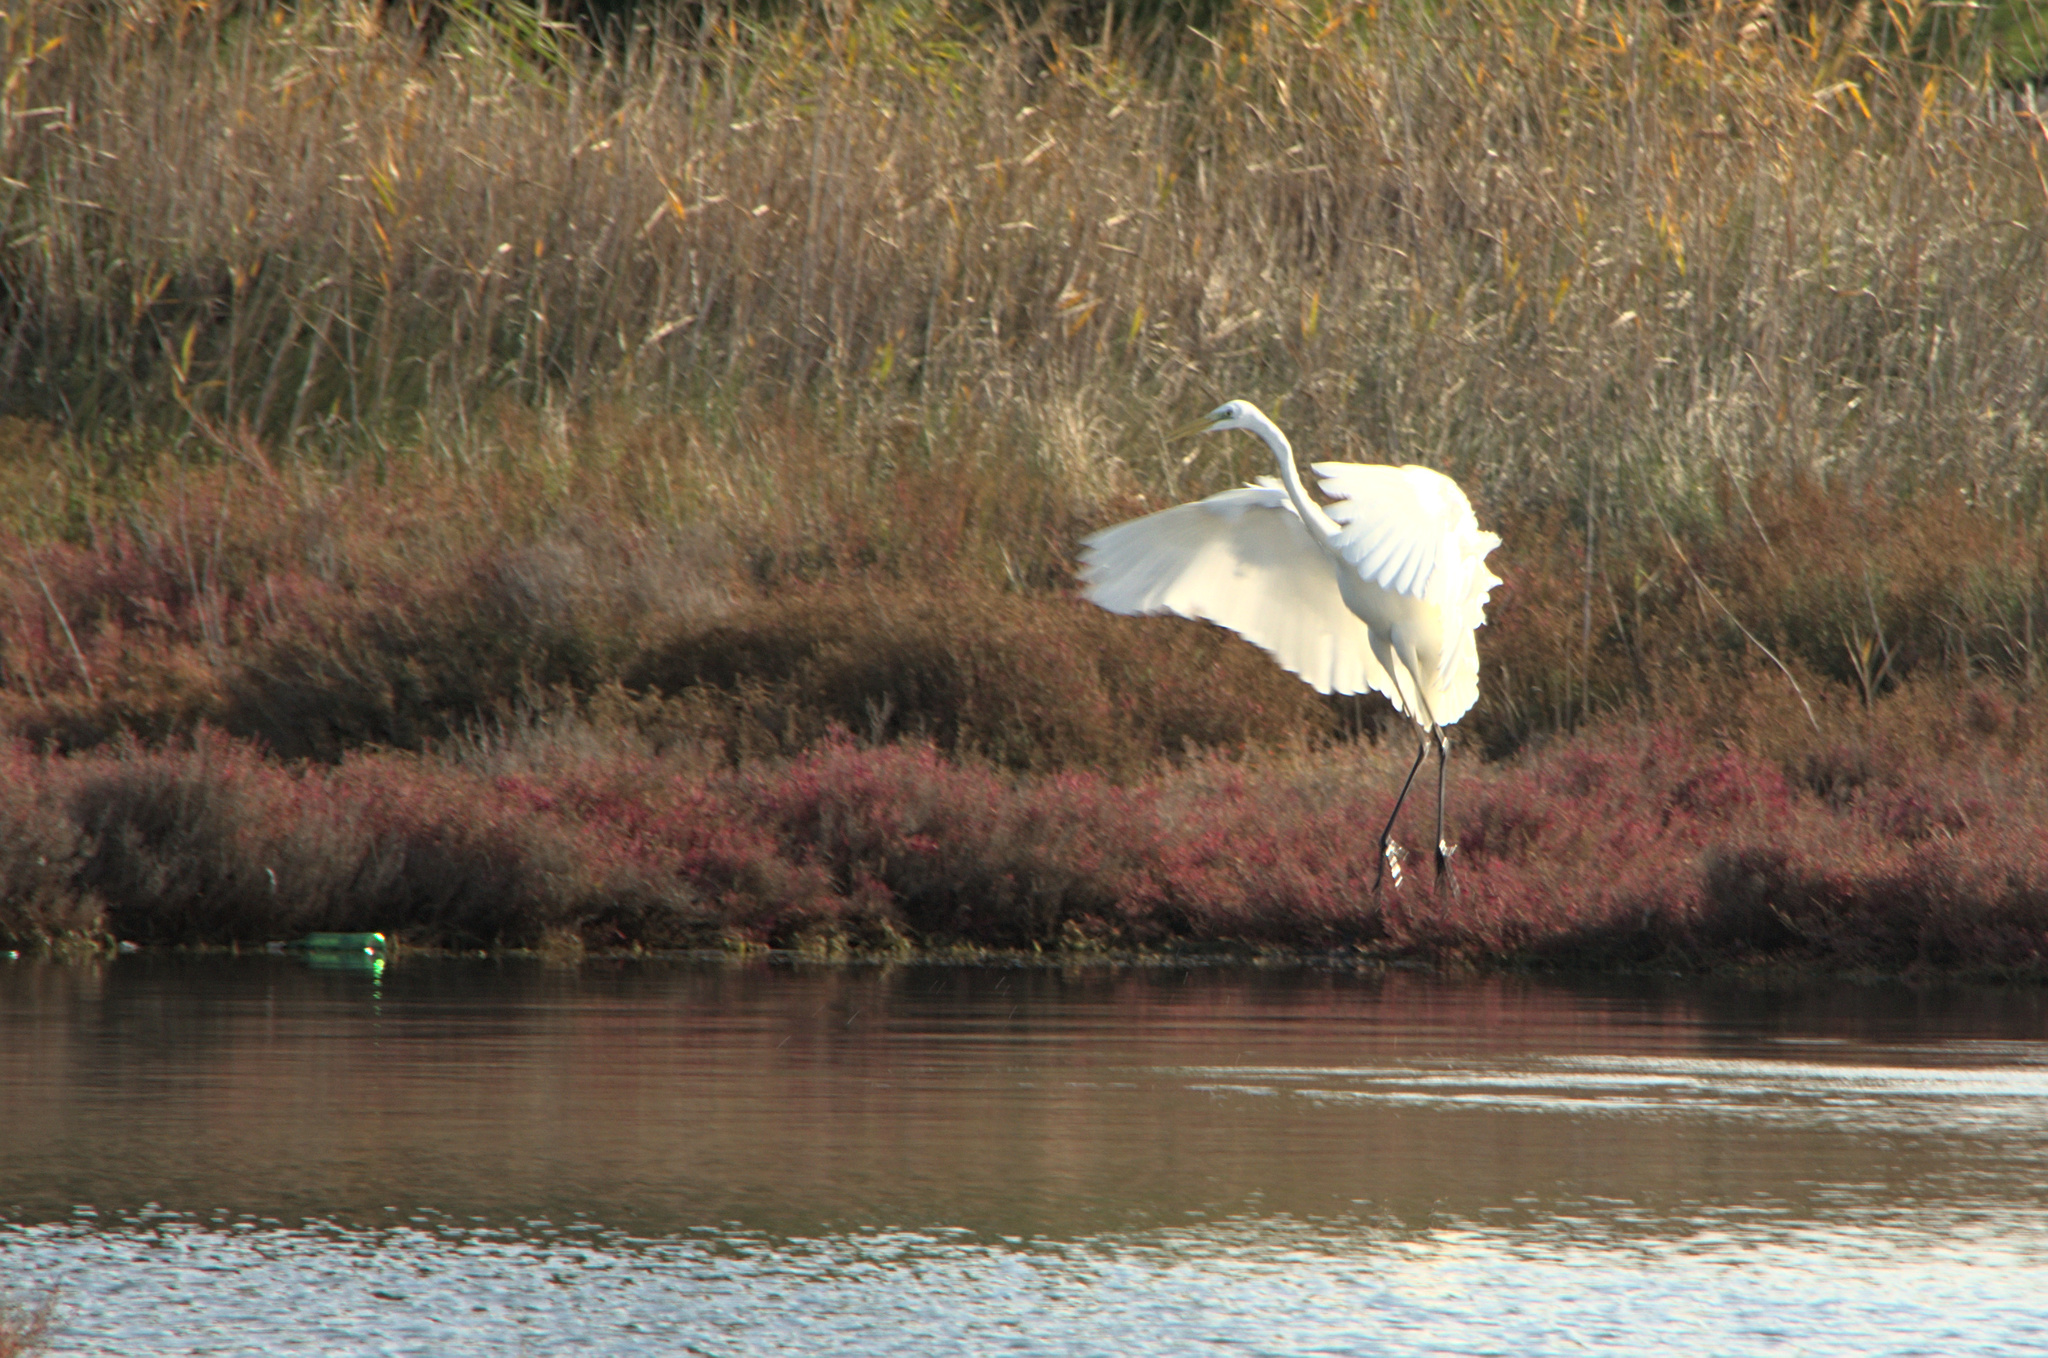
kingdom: Animalia
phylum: Chordata
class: Aves
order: Pelecaniformes
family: Ardeidae
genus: Ardea
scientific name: Ardea alba
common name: Great egret
